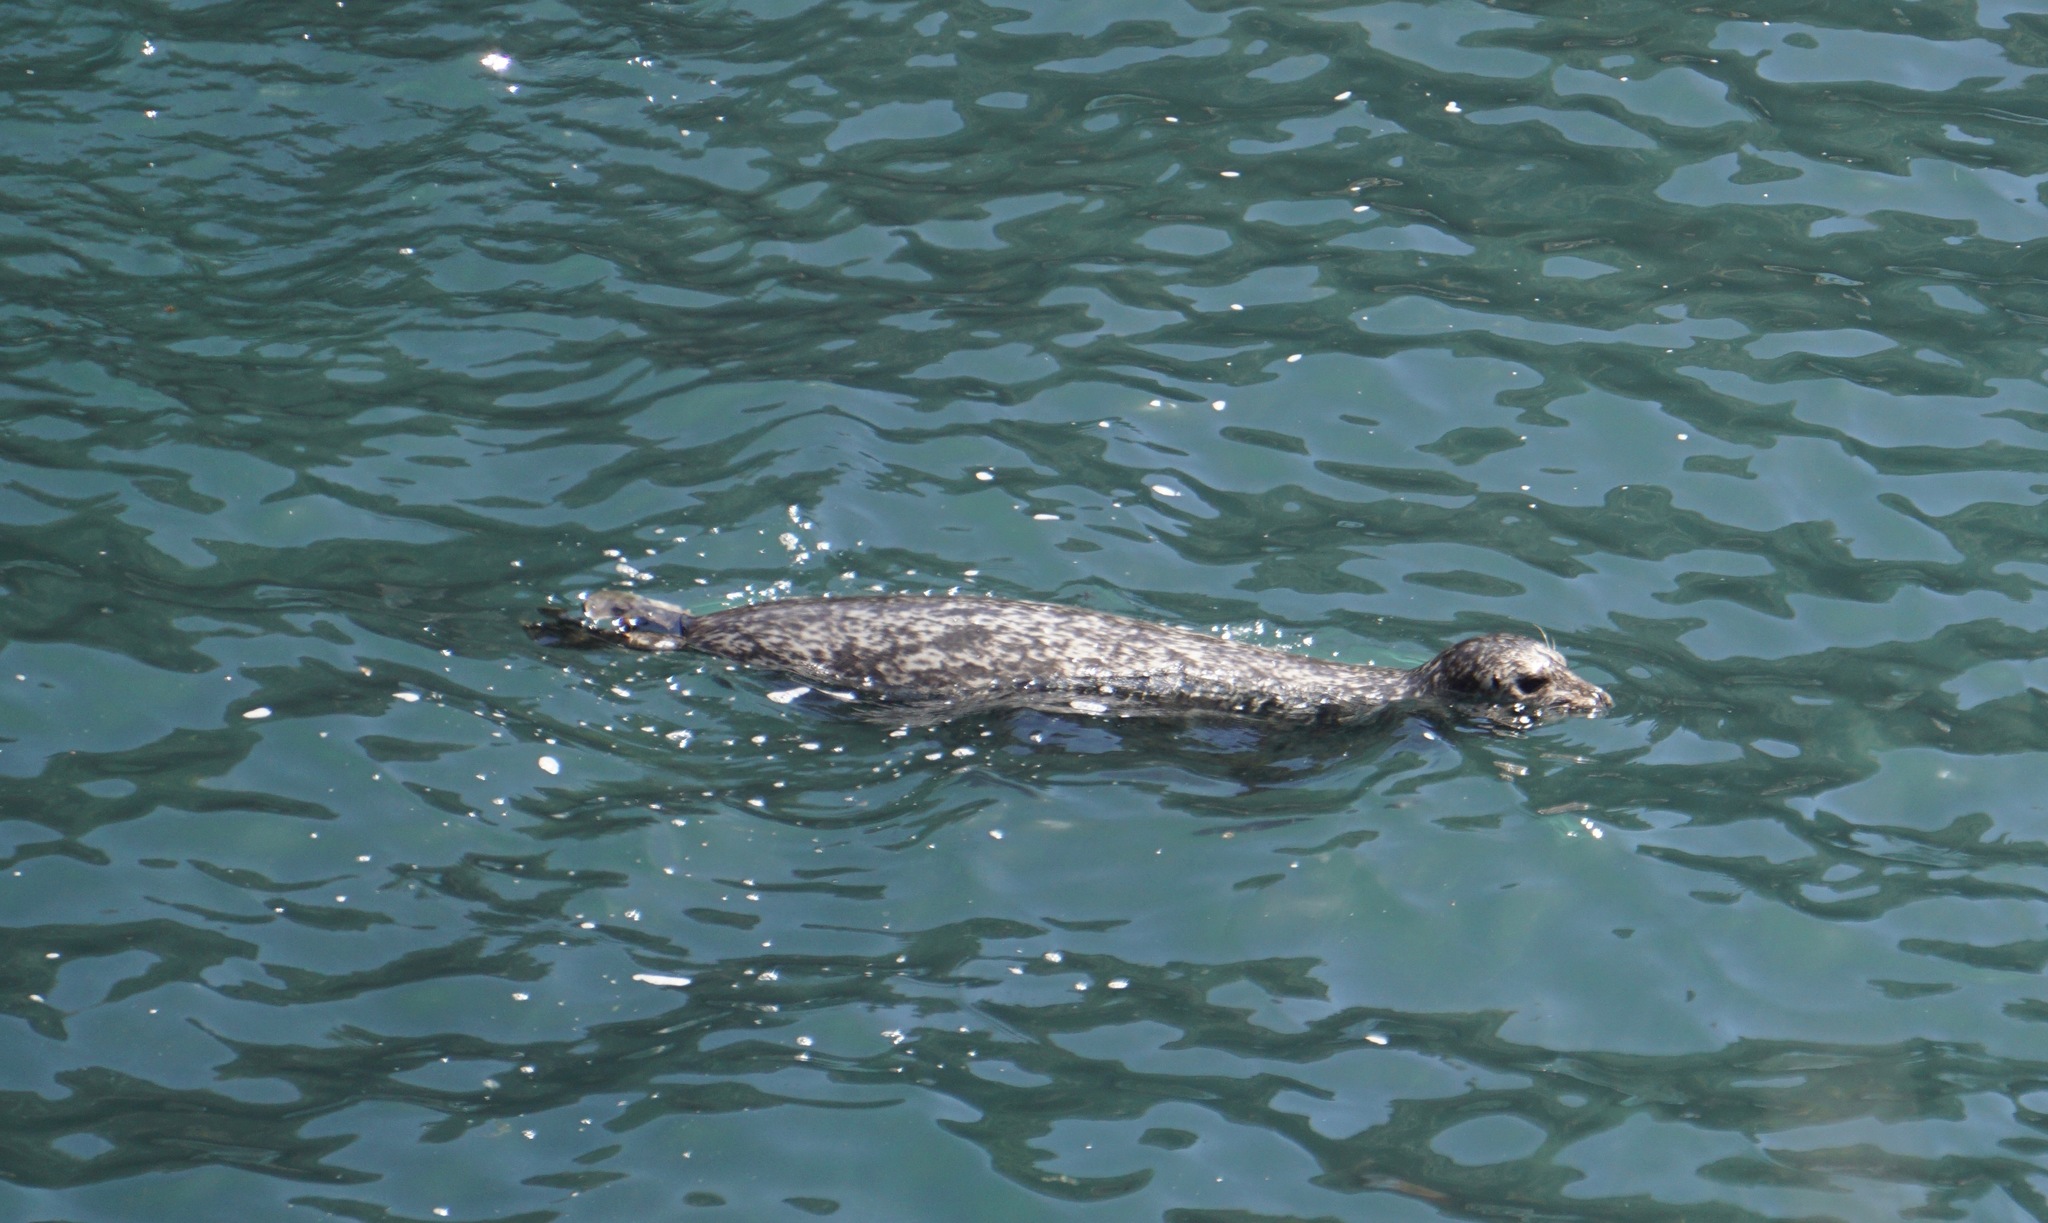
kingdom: Animalia
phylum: Chordata
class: Mammalia
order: Carnivora
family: Phocidae
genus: Phoca
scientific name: Phoca vitulina
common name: Harbor seal
